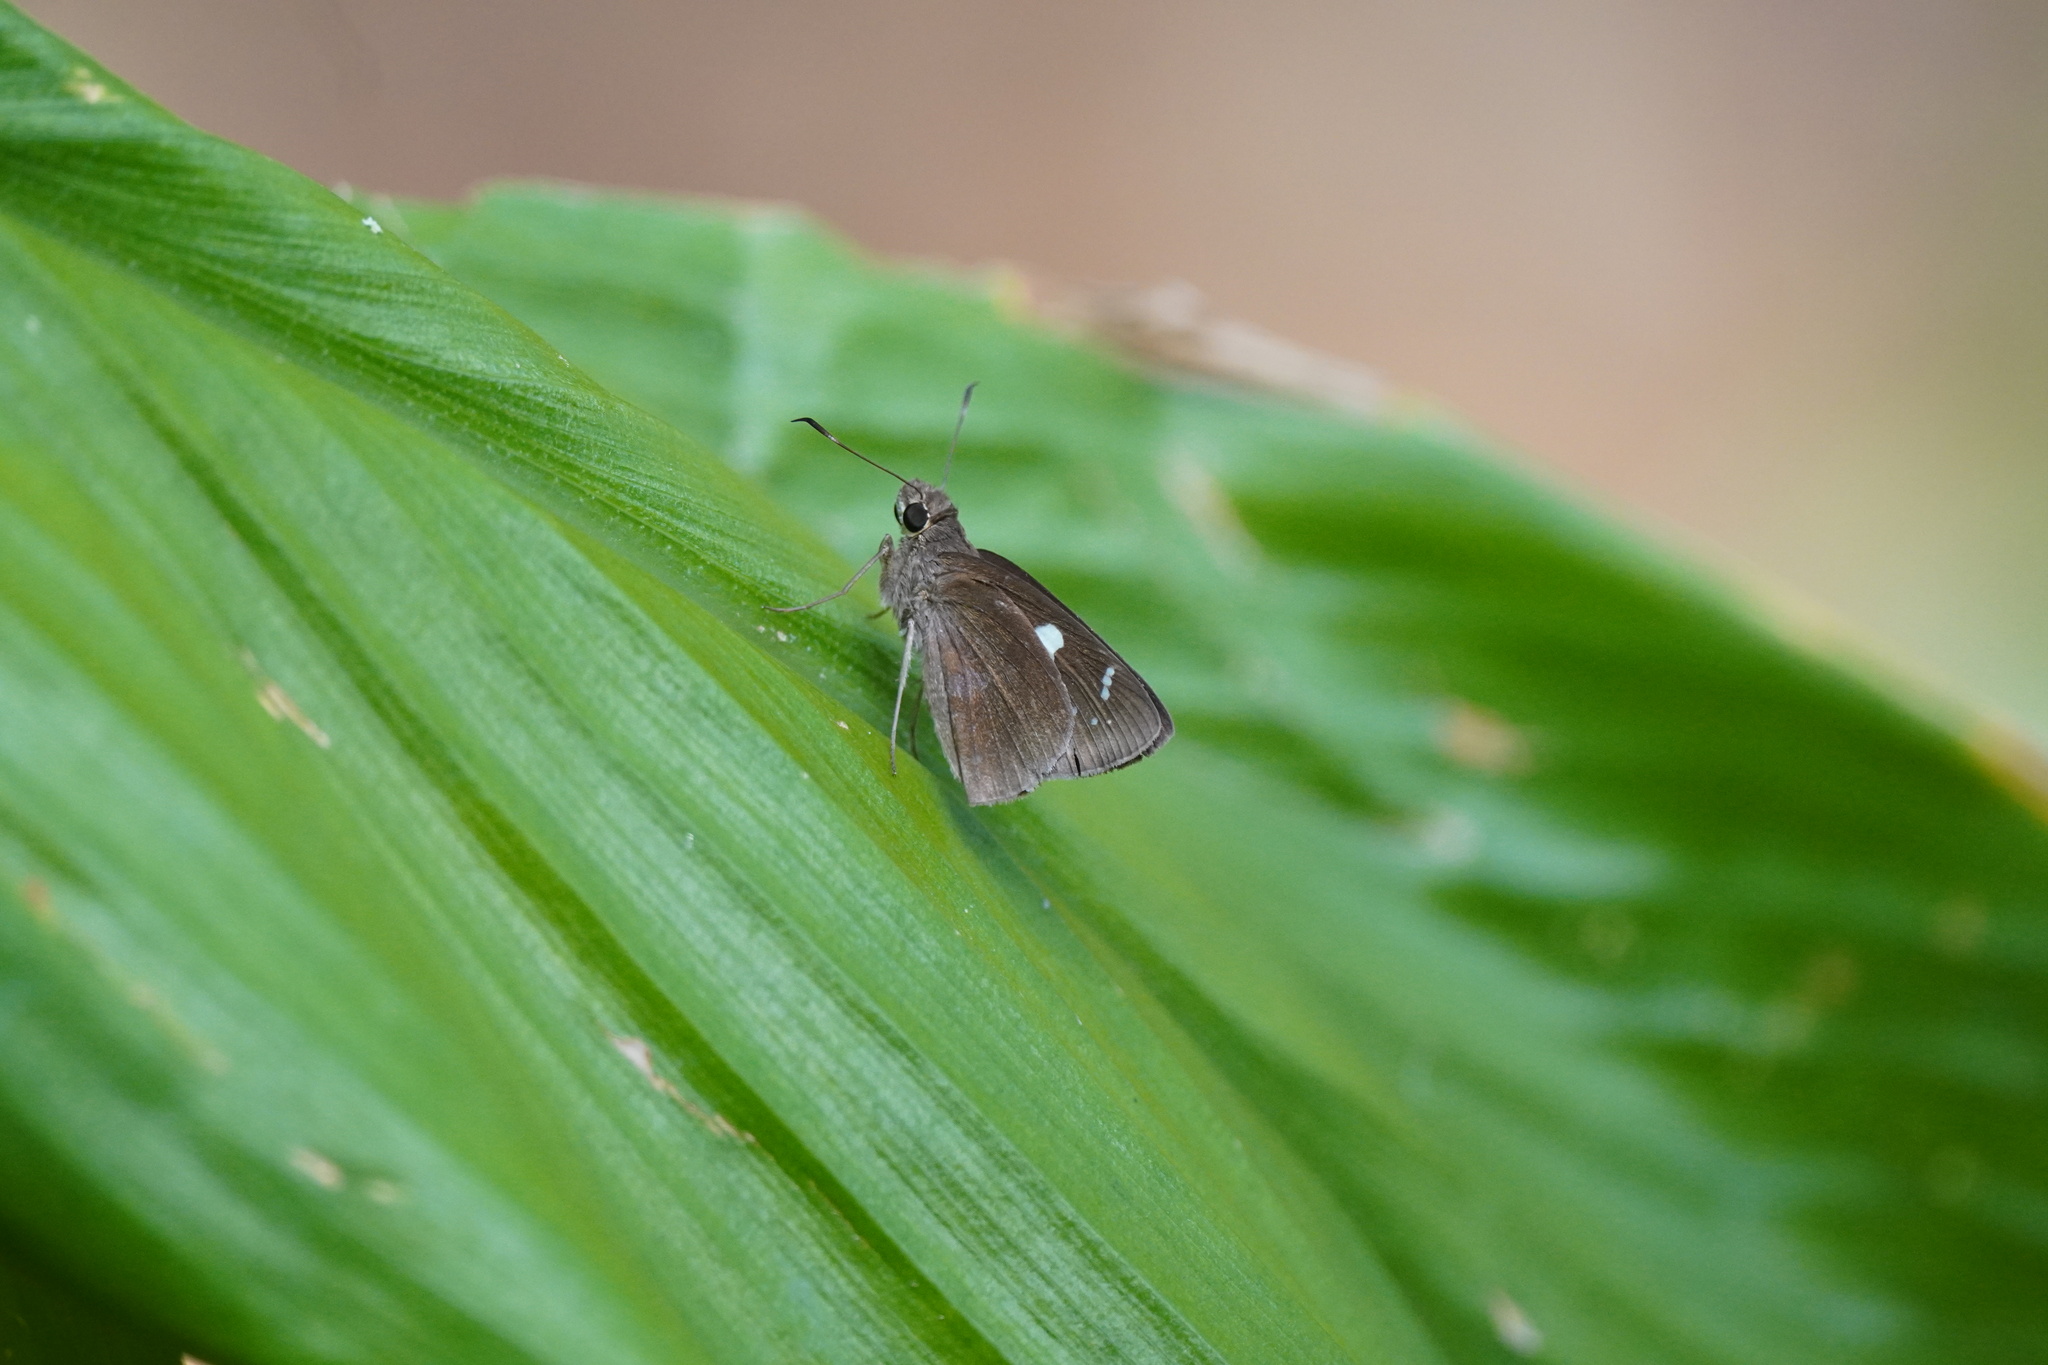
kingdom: Animalia
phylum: Arthropoda
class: Insecta
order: Lepidoptera
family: Hesperiidae
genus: Notocrypta
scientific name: Notocrypta curvifascia
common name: Restricted demon
